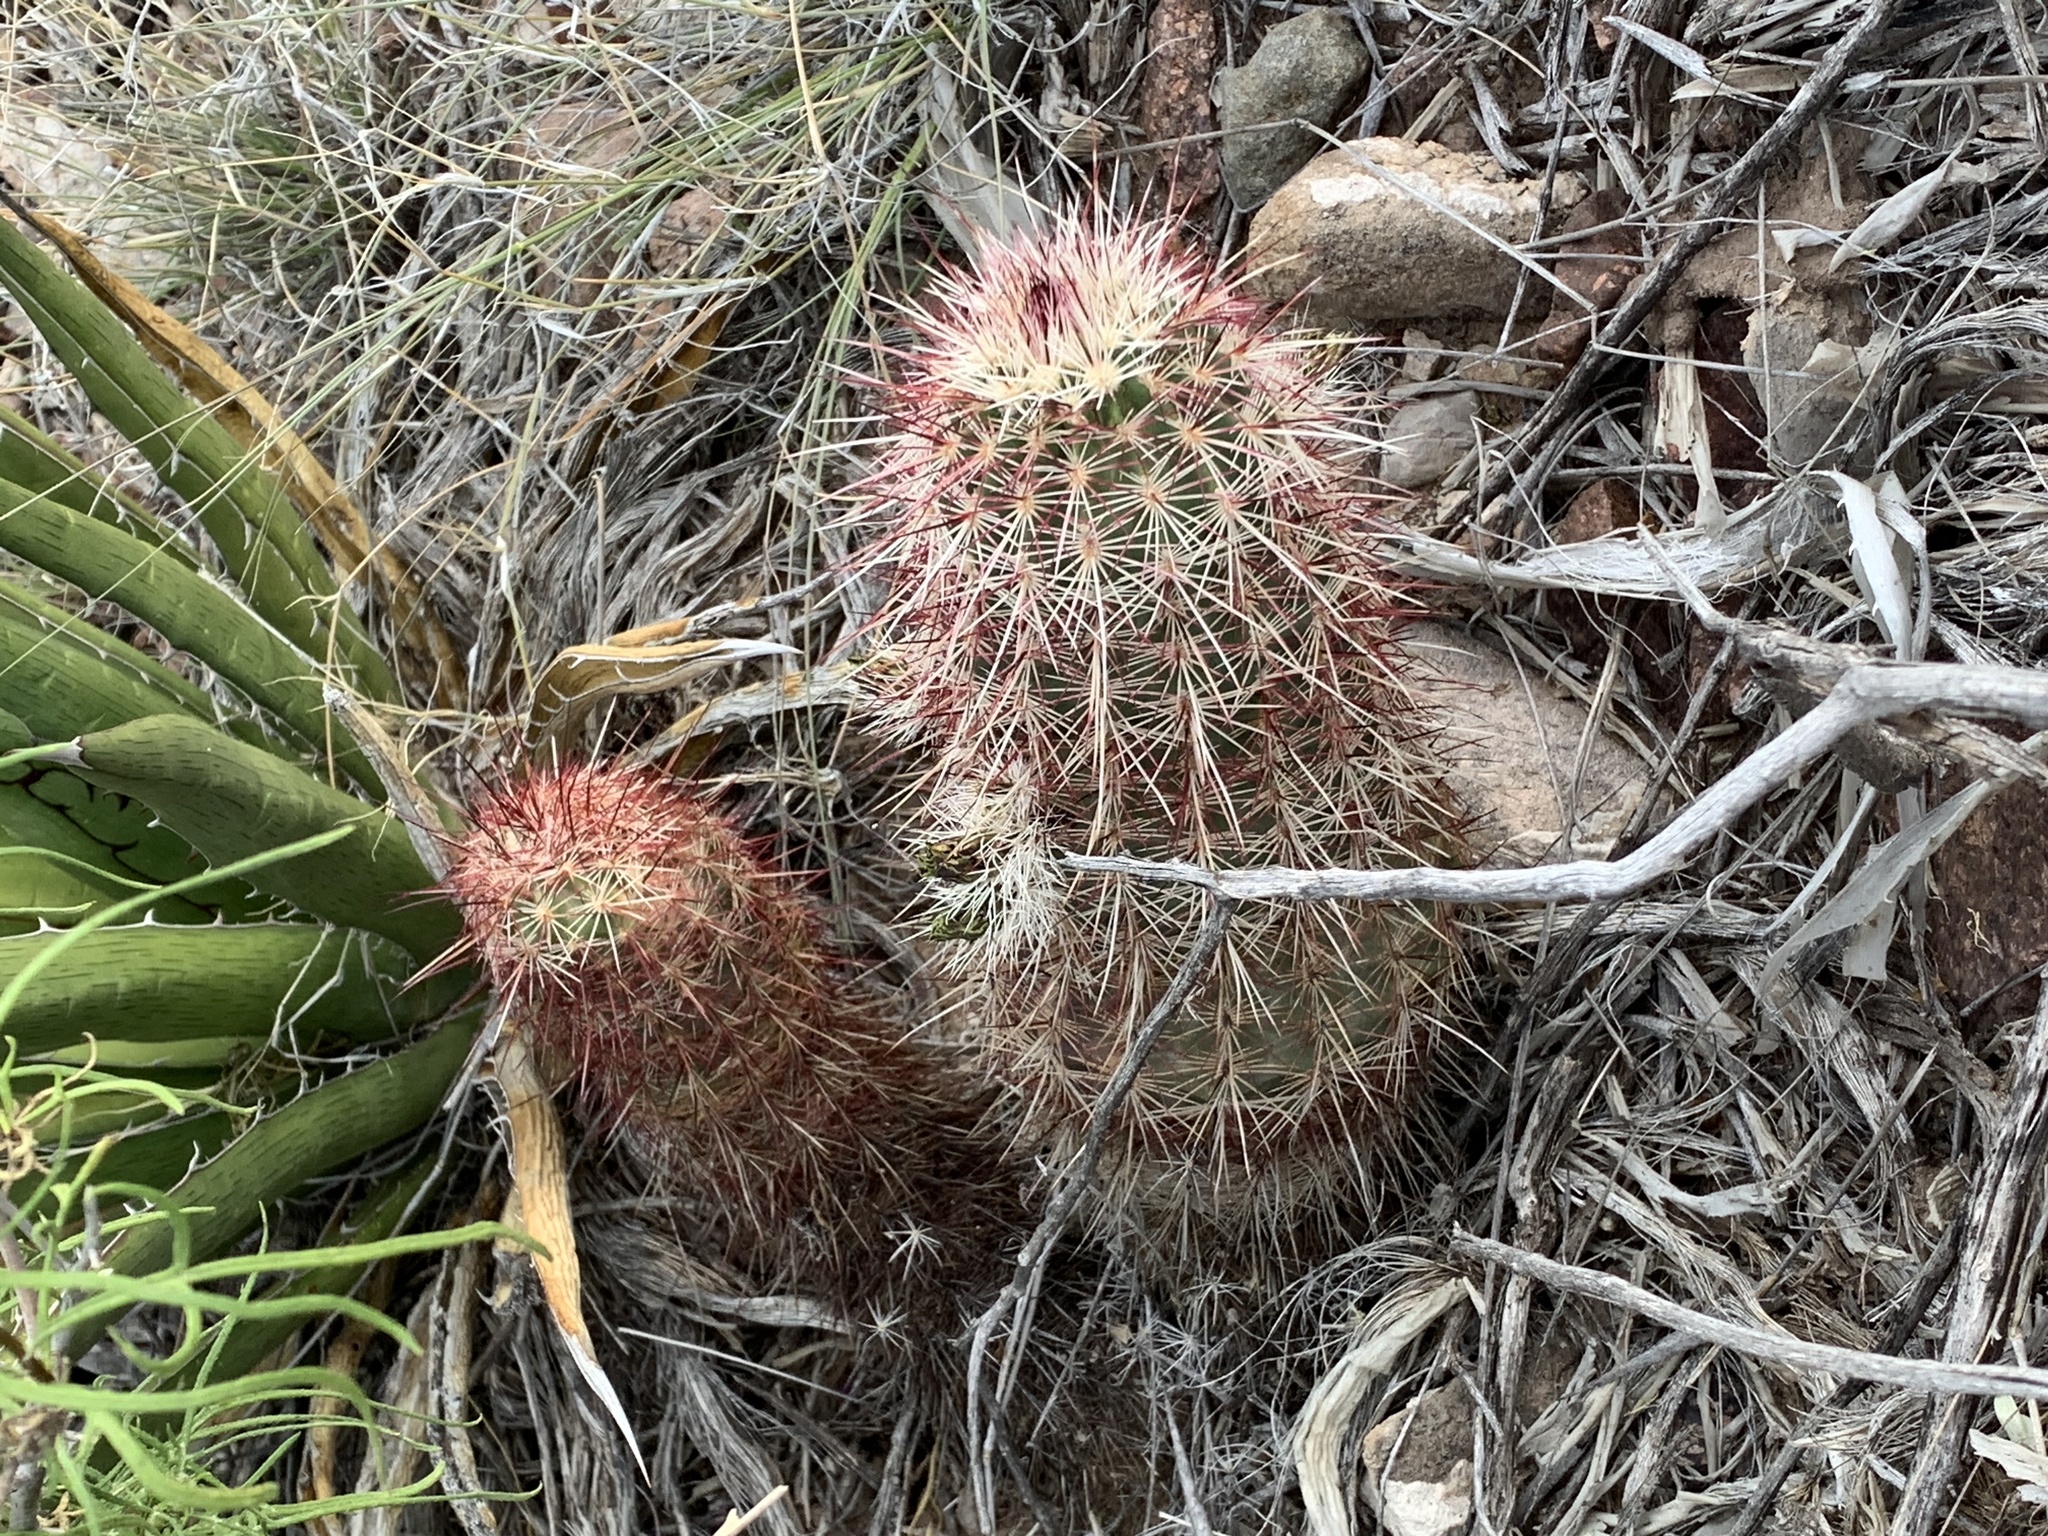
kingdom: Plantae
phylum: Tracheophyta
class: Magnoliopsida
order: Caryophyllales
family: Cactaceae
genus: Echinocereus
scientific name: Echinocereus viridiflorus
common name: Nylon hedgehog cactus
